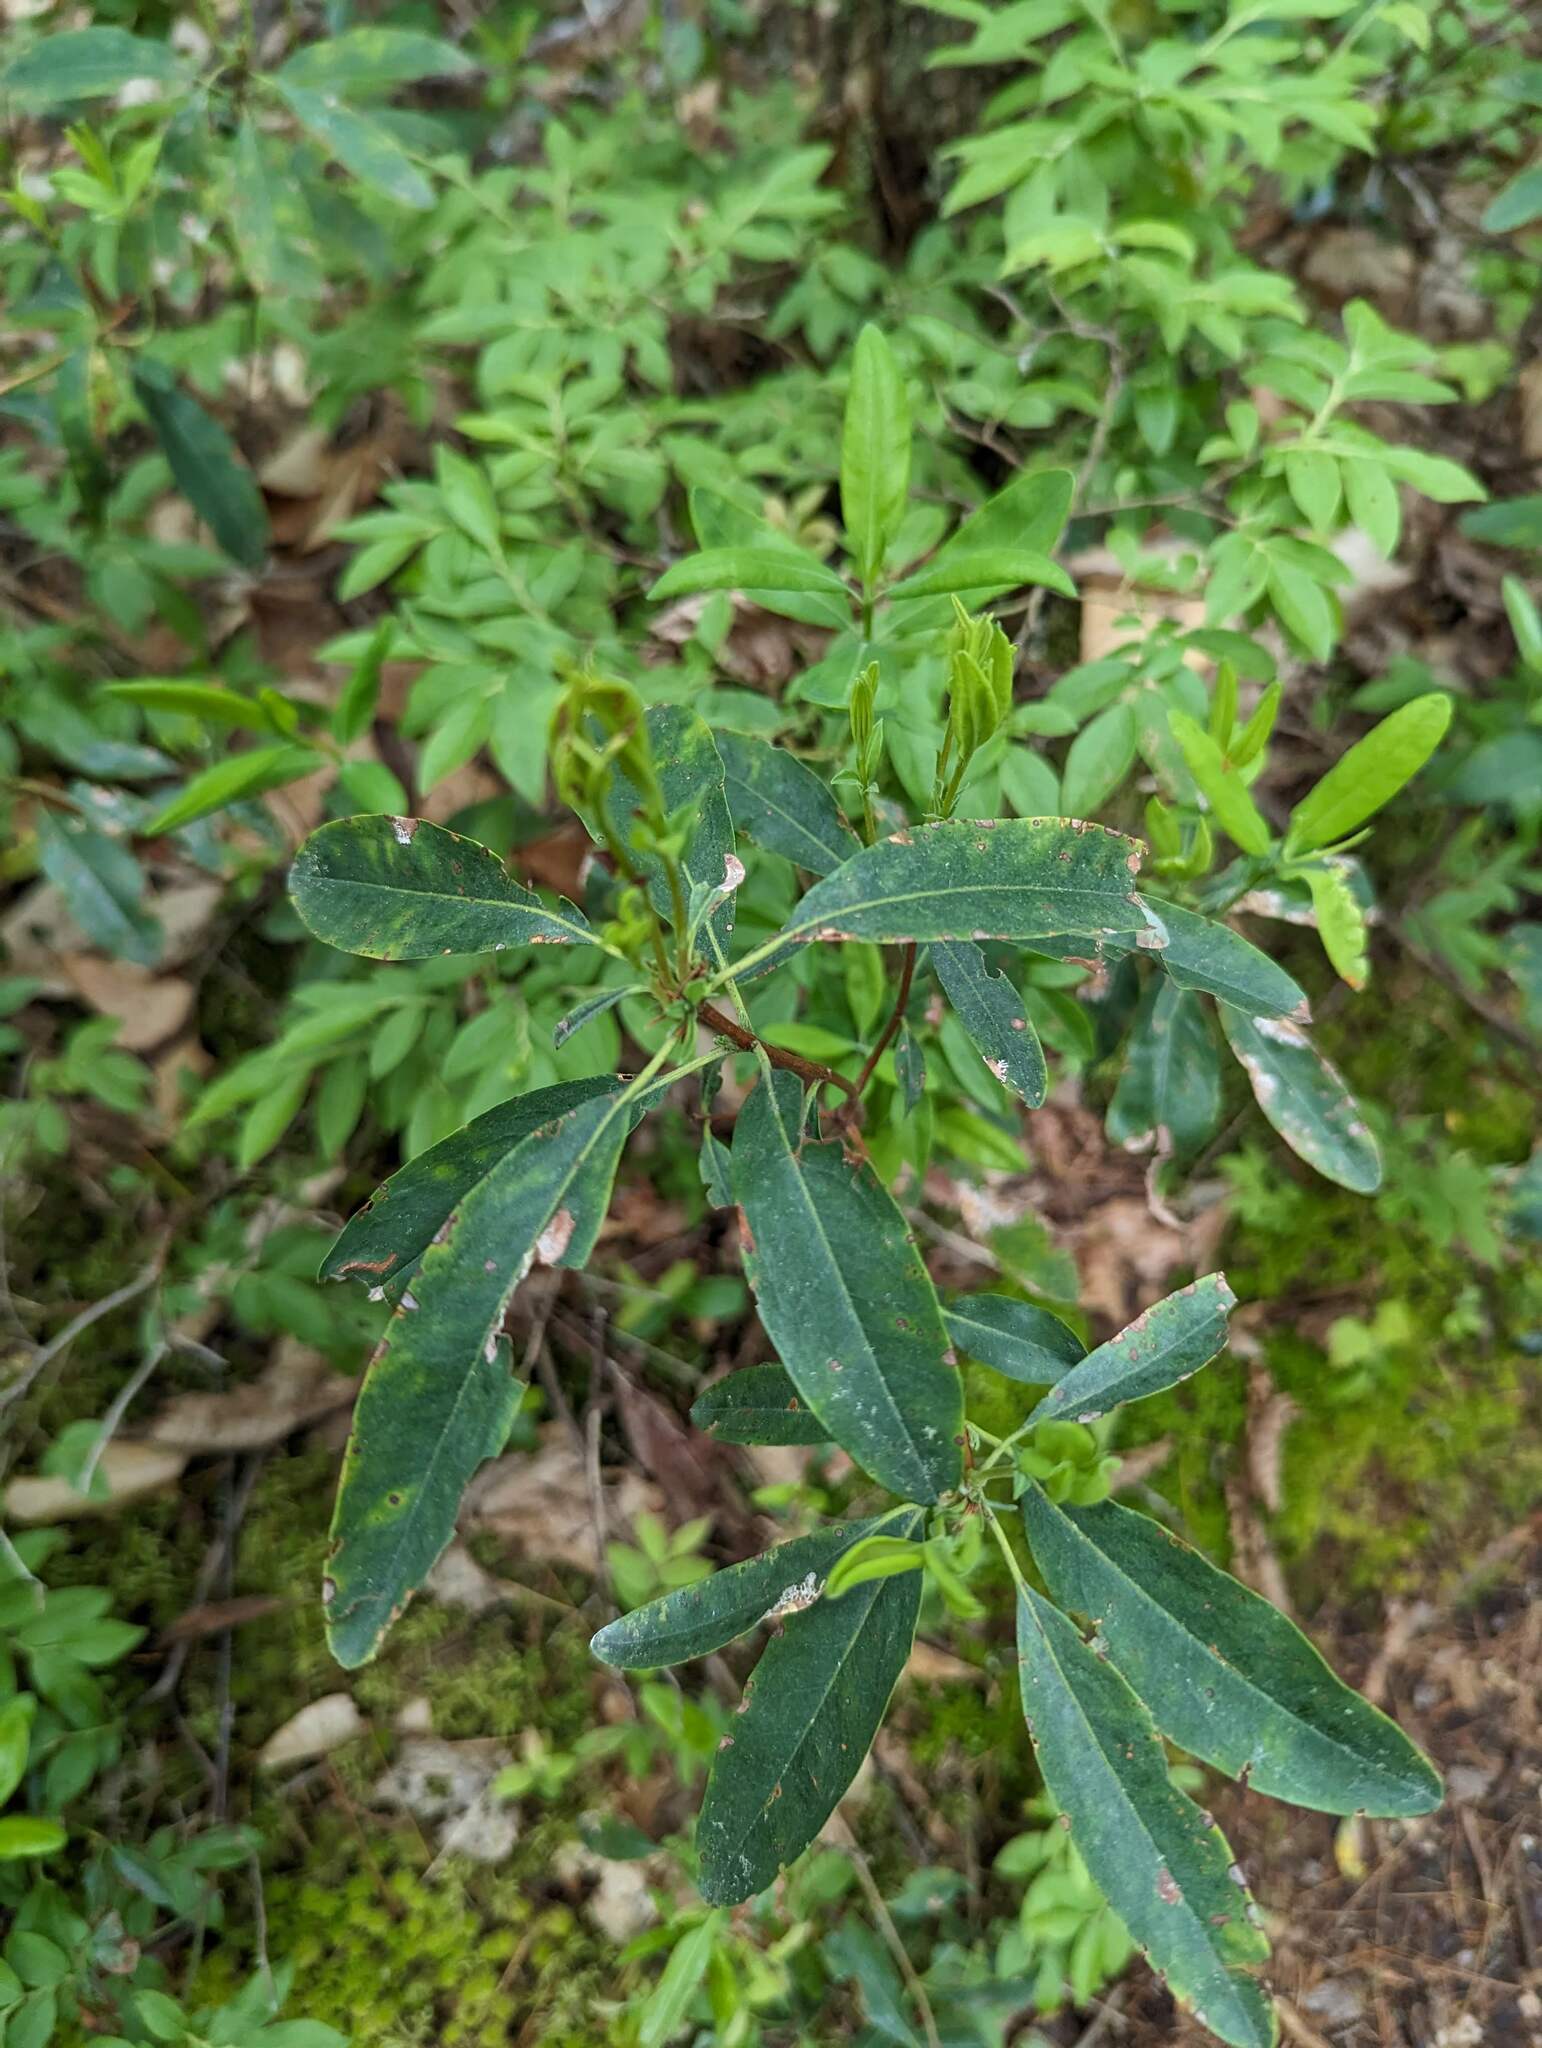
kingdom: Plantae
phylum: Tracheophyta
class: Magnoliopsida
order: Ericales
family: Ericaceae
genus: Kalmia
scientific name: Kalmia angustifolia
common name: Sheep-laurel
